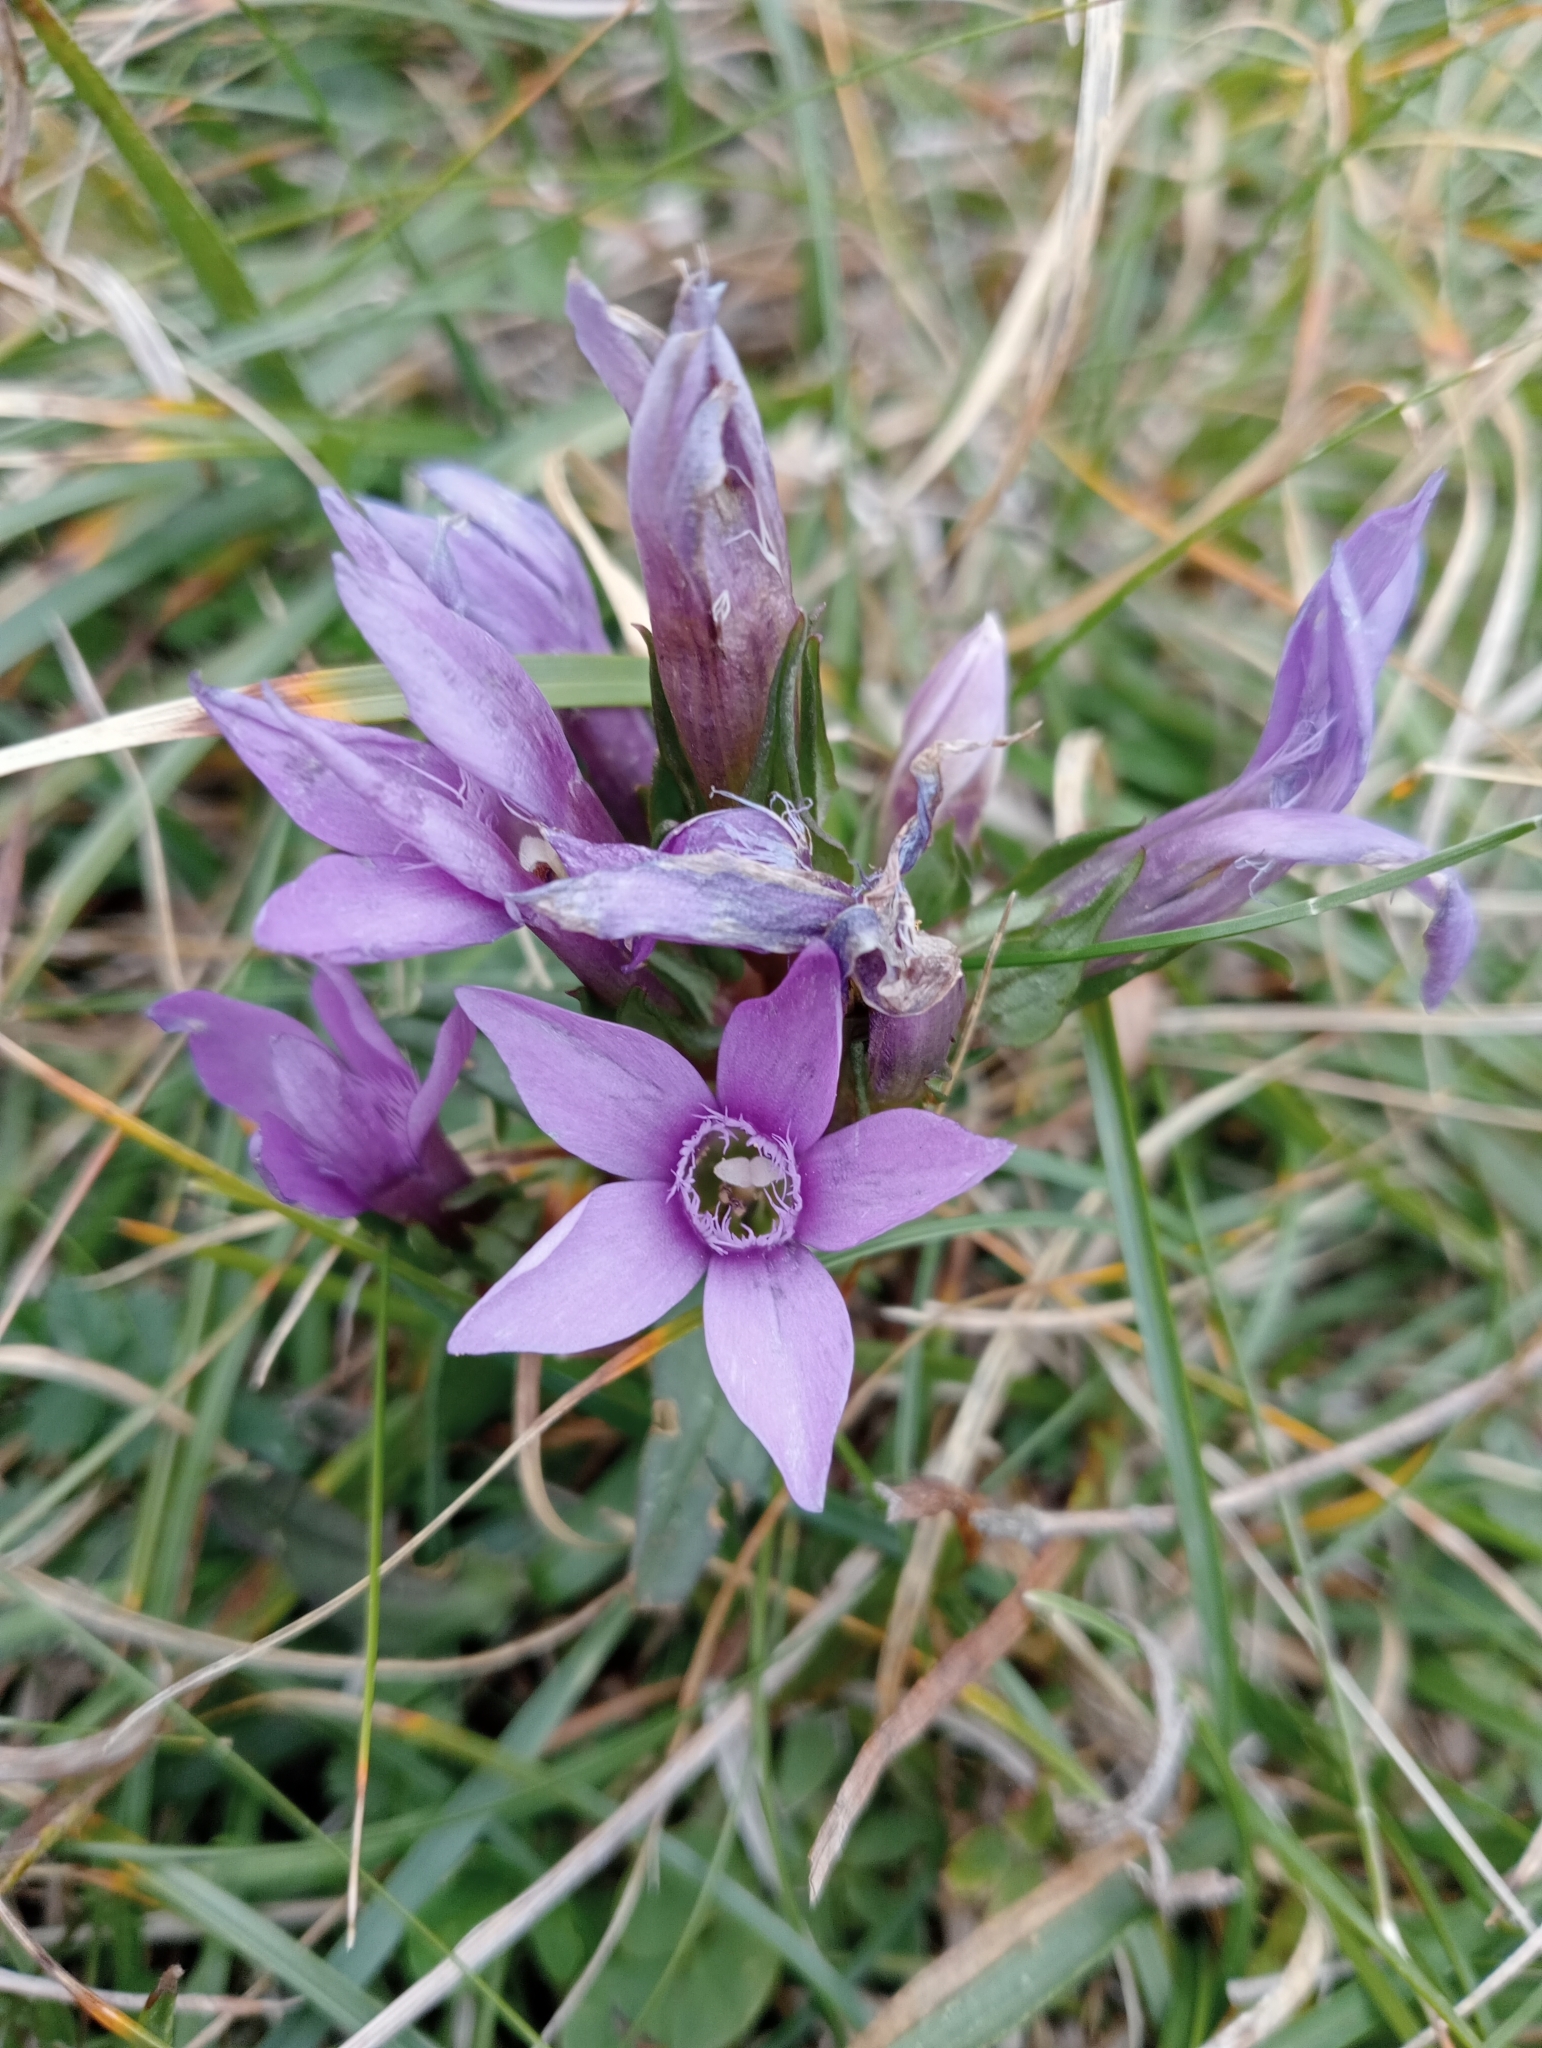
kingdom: Plantae
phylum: Tracheophyta
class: Magnoliopsida
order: Gentianales
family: Gentianaceae
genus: Gentianella
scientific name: Gentianella anisodonta
